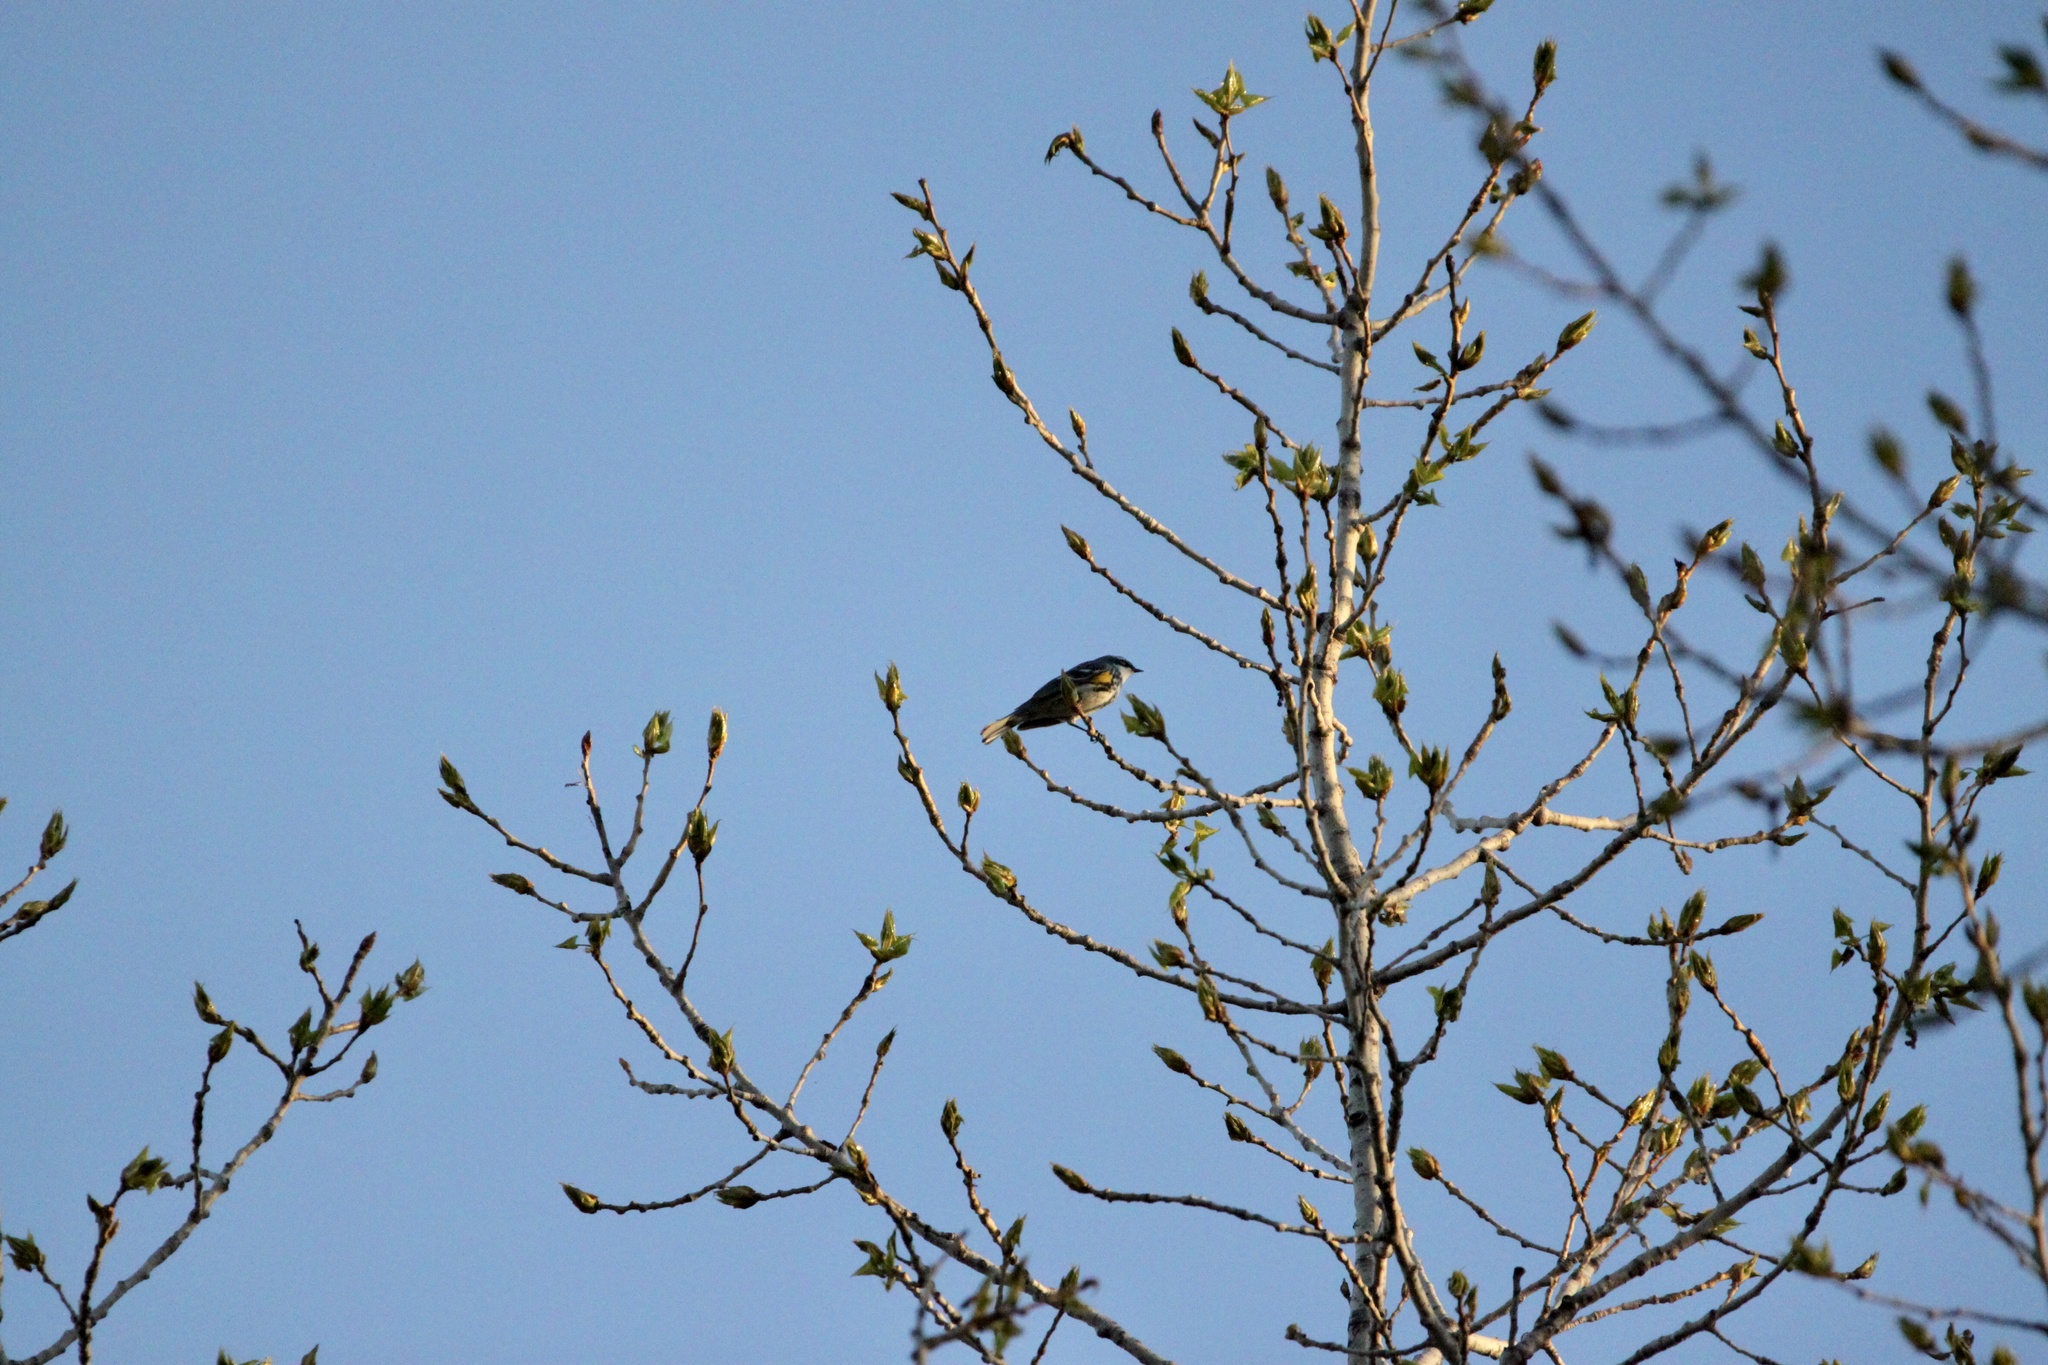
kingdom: Animalia
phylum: Chordata
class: Aves
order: Passeriformes
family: Parulidae
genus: Setophaga
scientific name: Setophaga coronata
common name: Myrtle warbler
